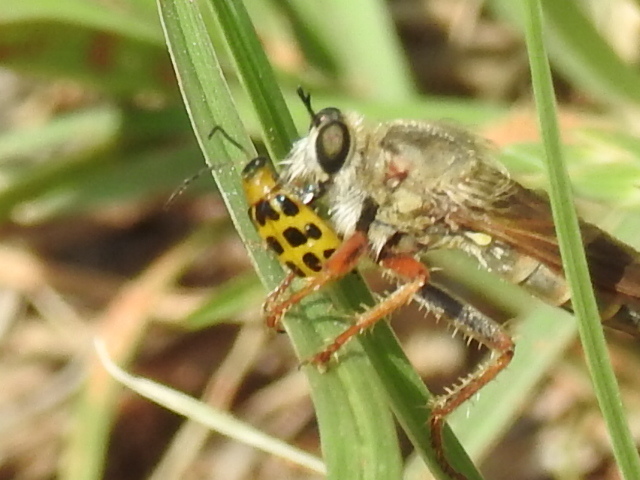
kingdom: Animalia
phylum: Arthropoda
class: Insecta
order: Coleoptera
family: Chrysomelidae
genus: Diabrotica
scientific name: Diabrotica undecimpunctata
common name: Spotted cucumber beetle
